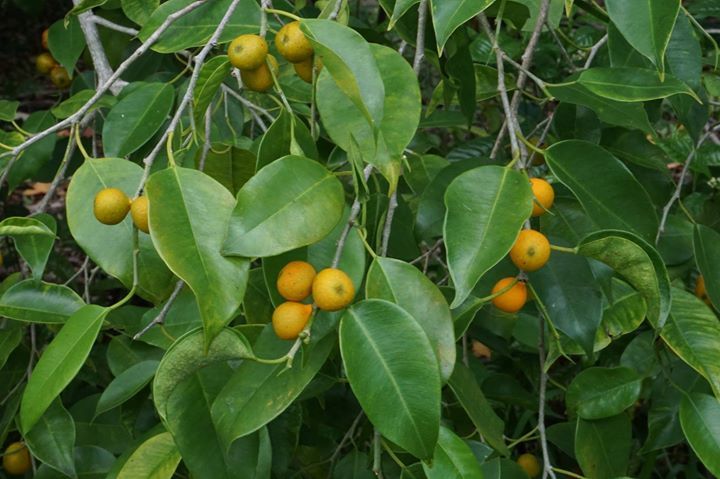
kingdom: Plantae
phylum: Tracheophyta
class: Magnoliopsida
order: Rosales
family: Moraceae
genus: Ficus
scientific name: Ficus benjamina
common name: Weeping fig
